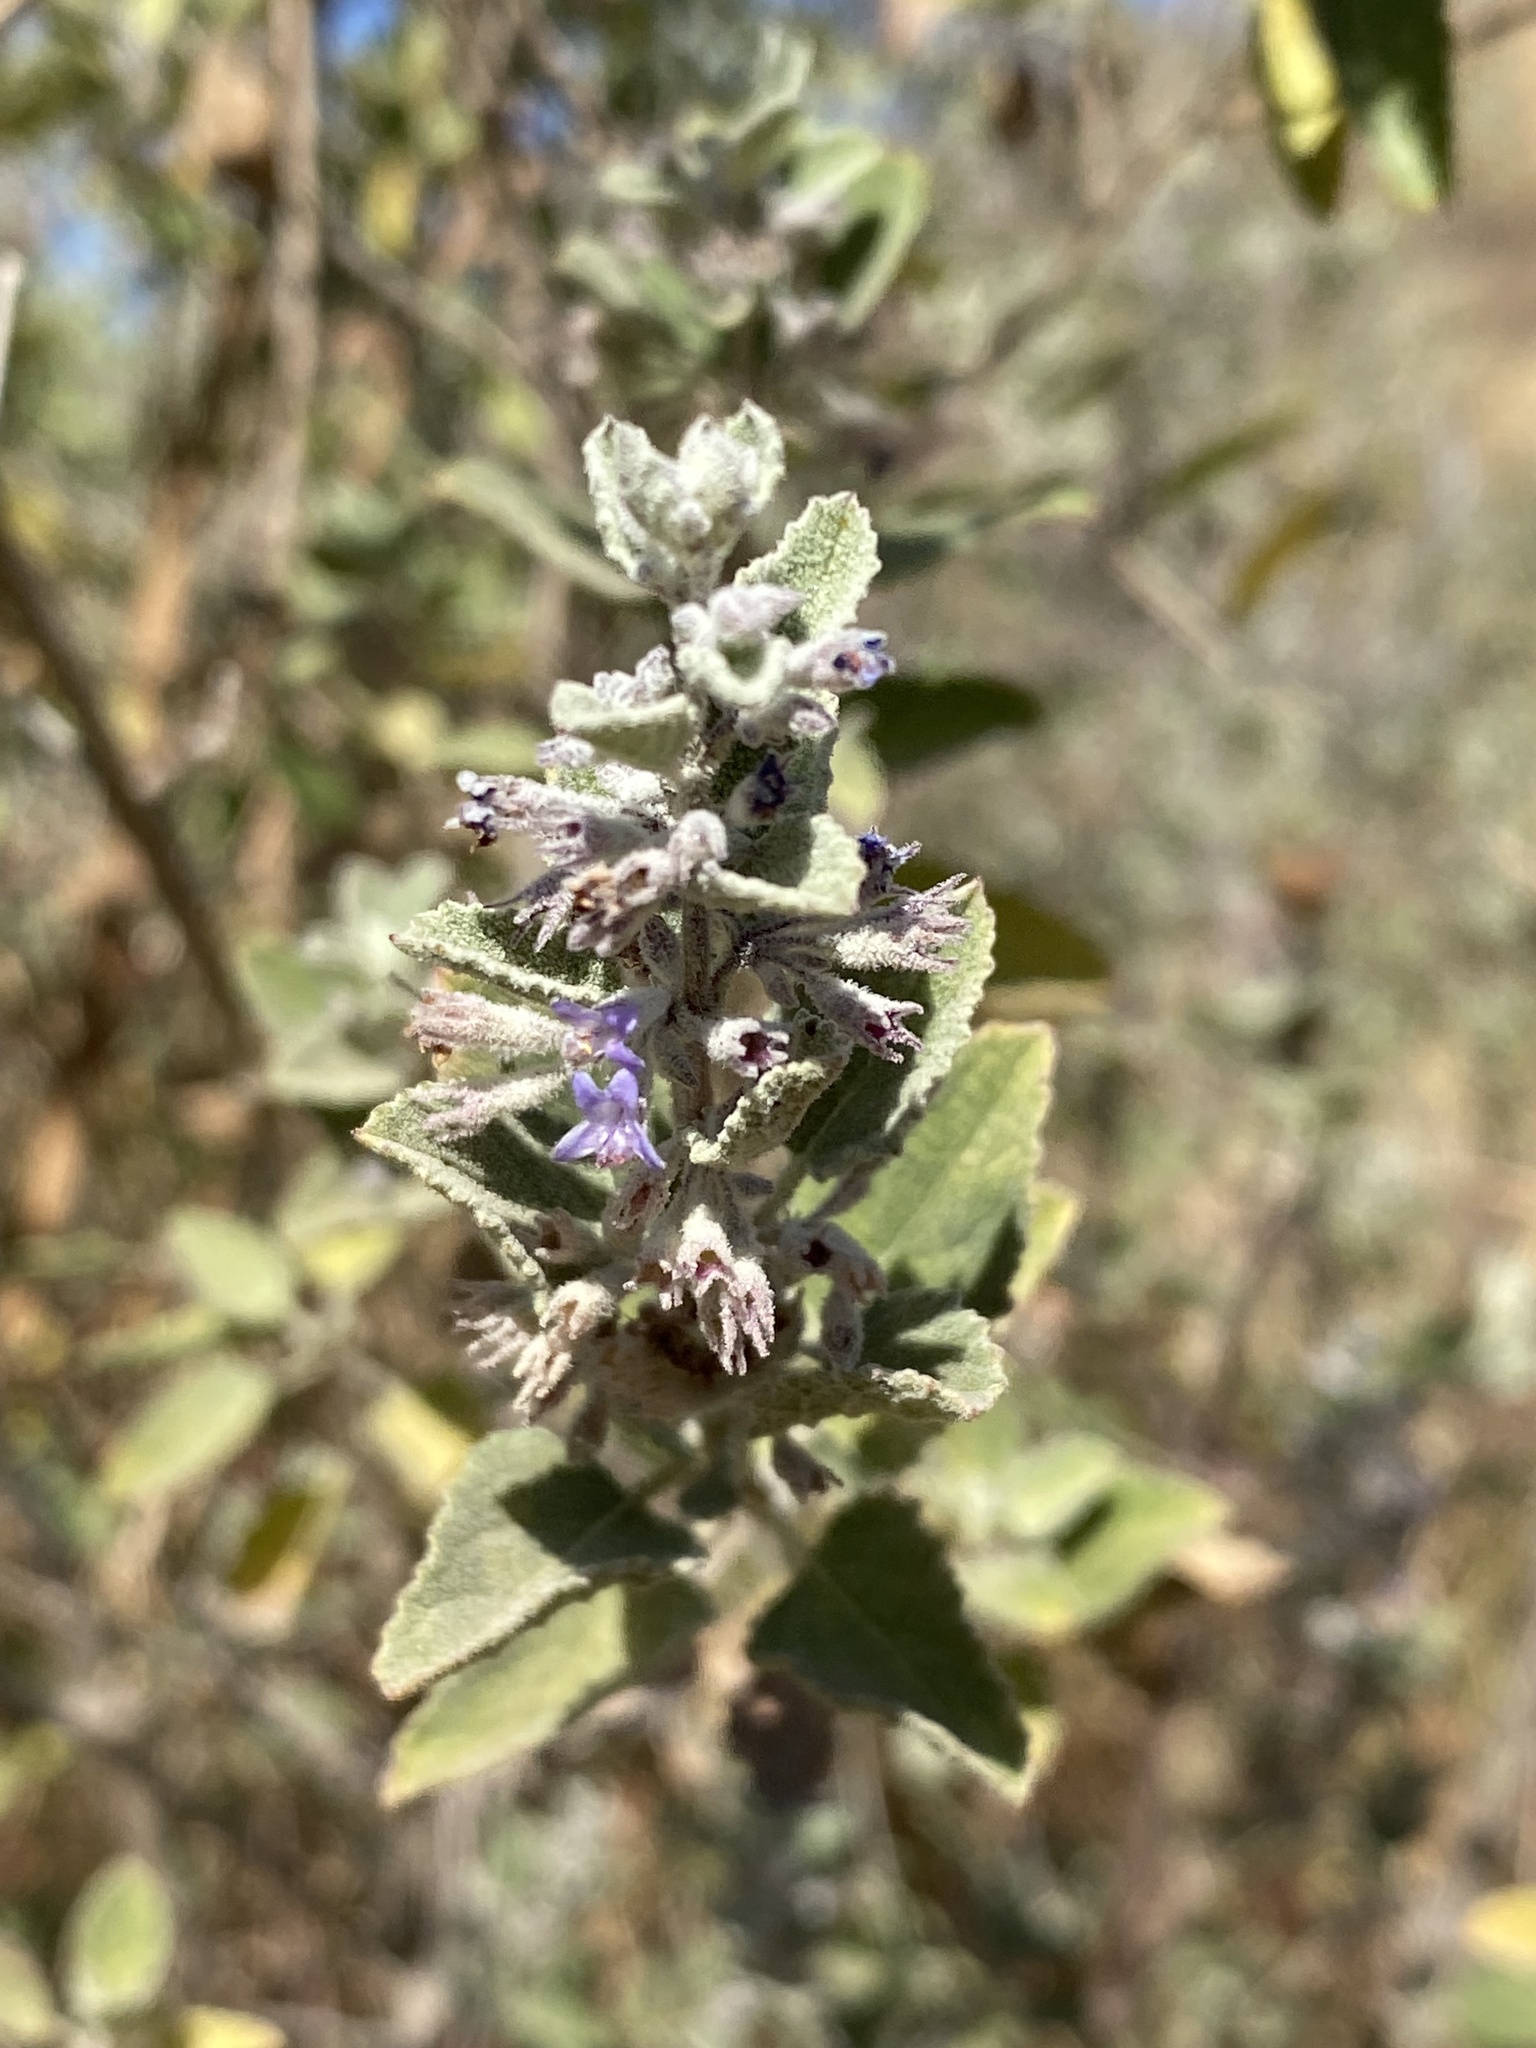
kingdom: Plantae
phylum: Tracheophyta
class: Magnoliopsida
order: Lamiales
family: Lamiaceae
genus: Condea
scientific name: Condea emoryi
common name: Chia
